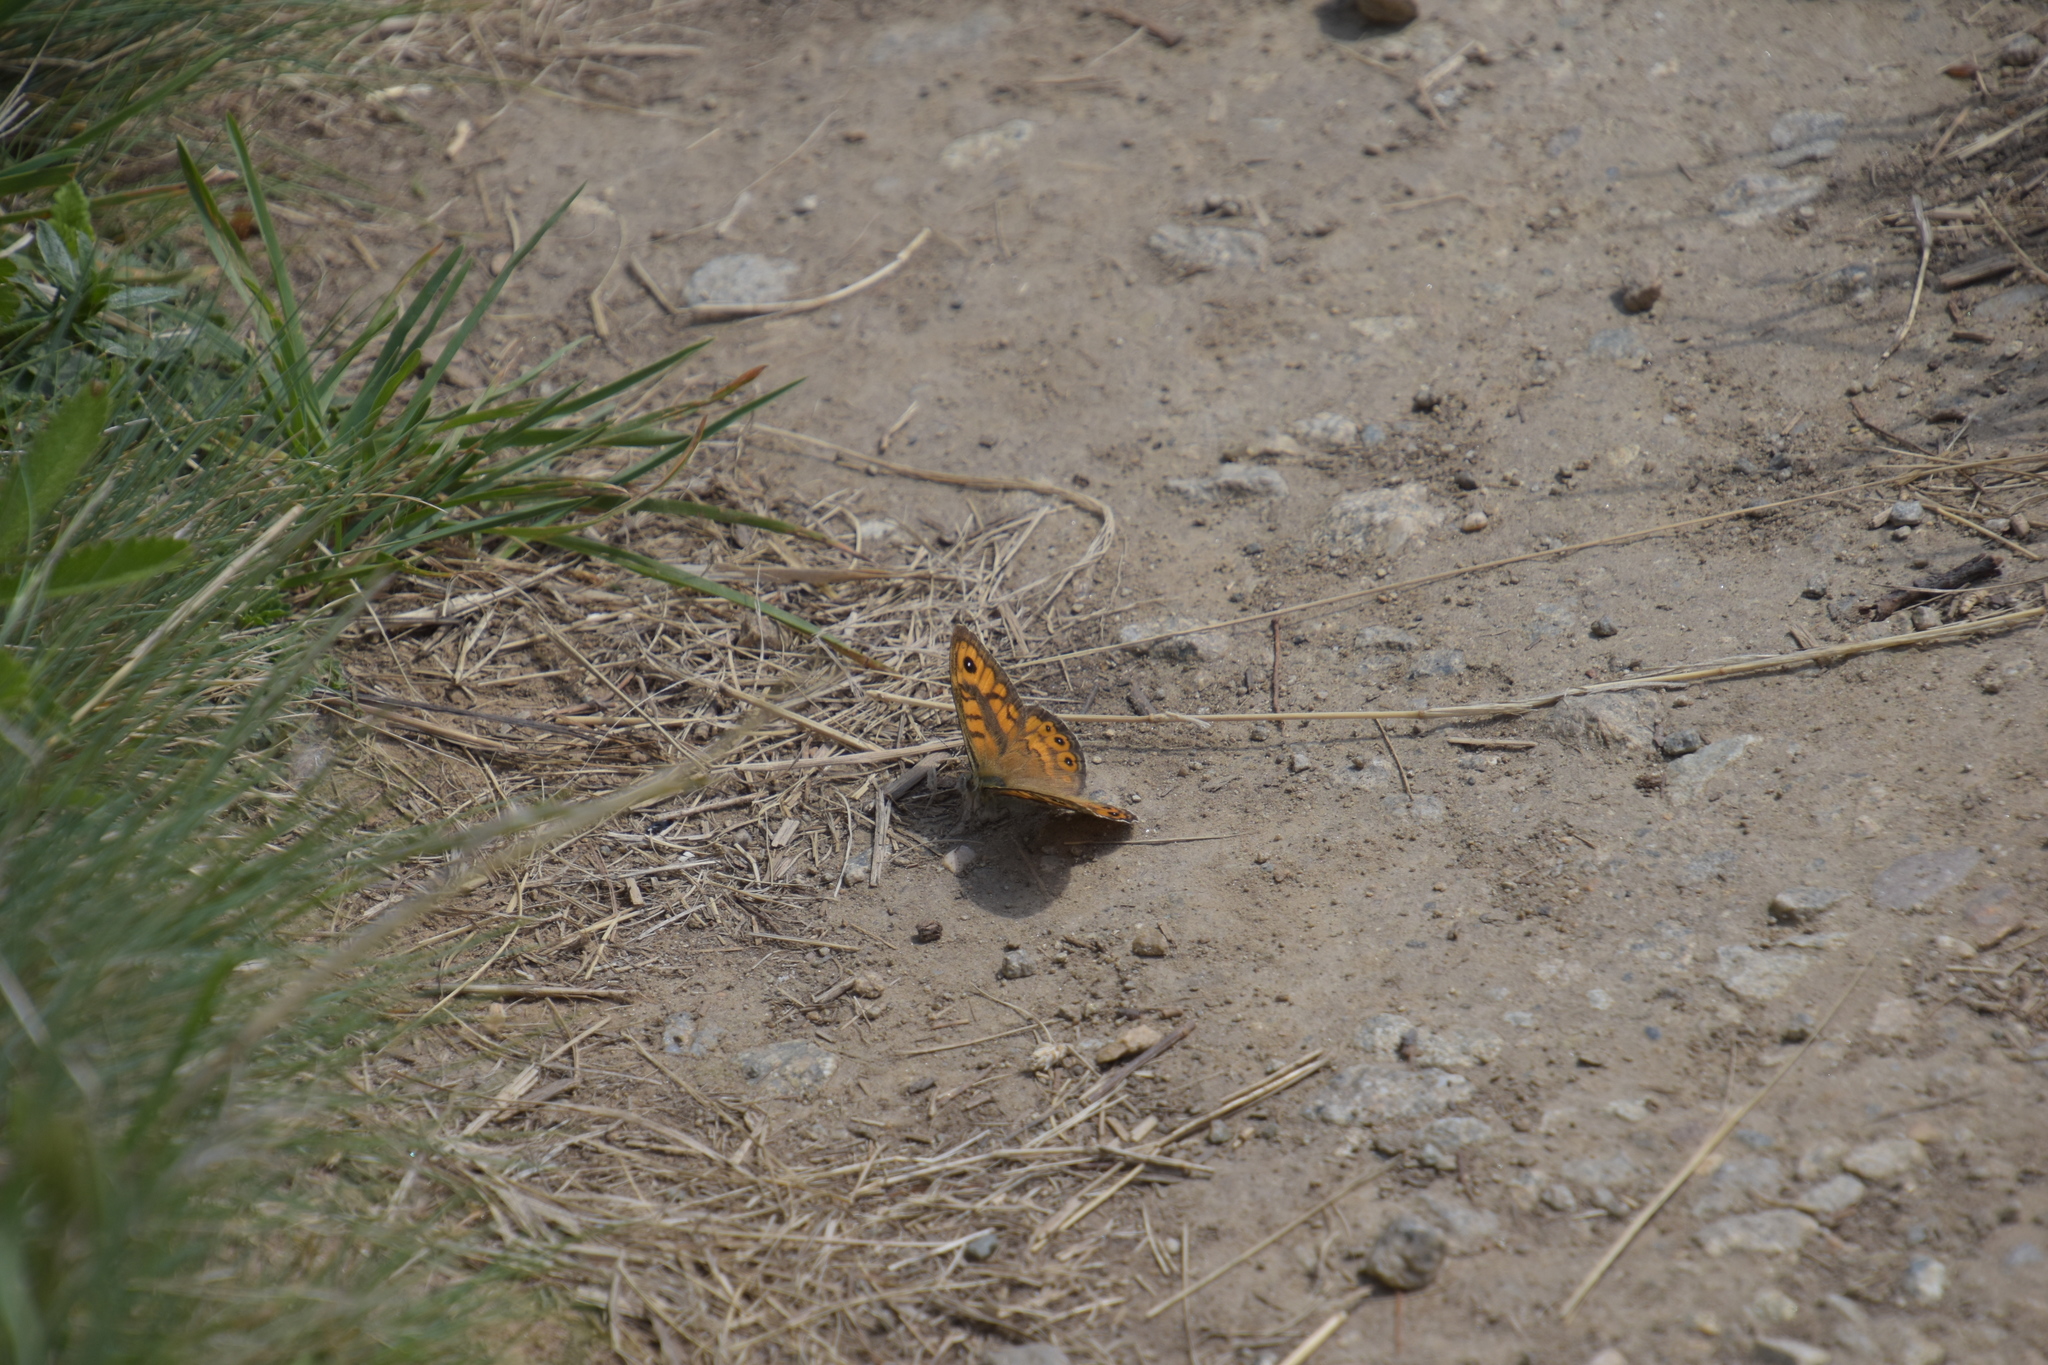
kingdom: Animalia
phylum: Arthropoda
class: Insecta
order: Lepidoptera
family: Nymphalidae
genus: Pararge
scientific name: Pararge Lasiommata megera
